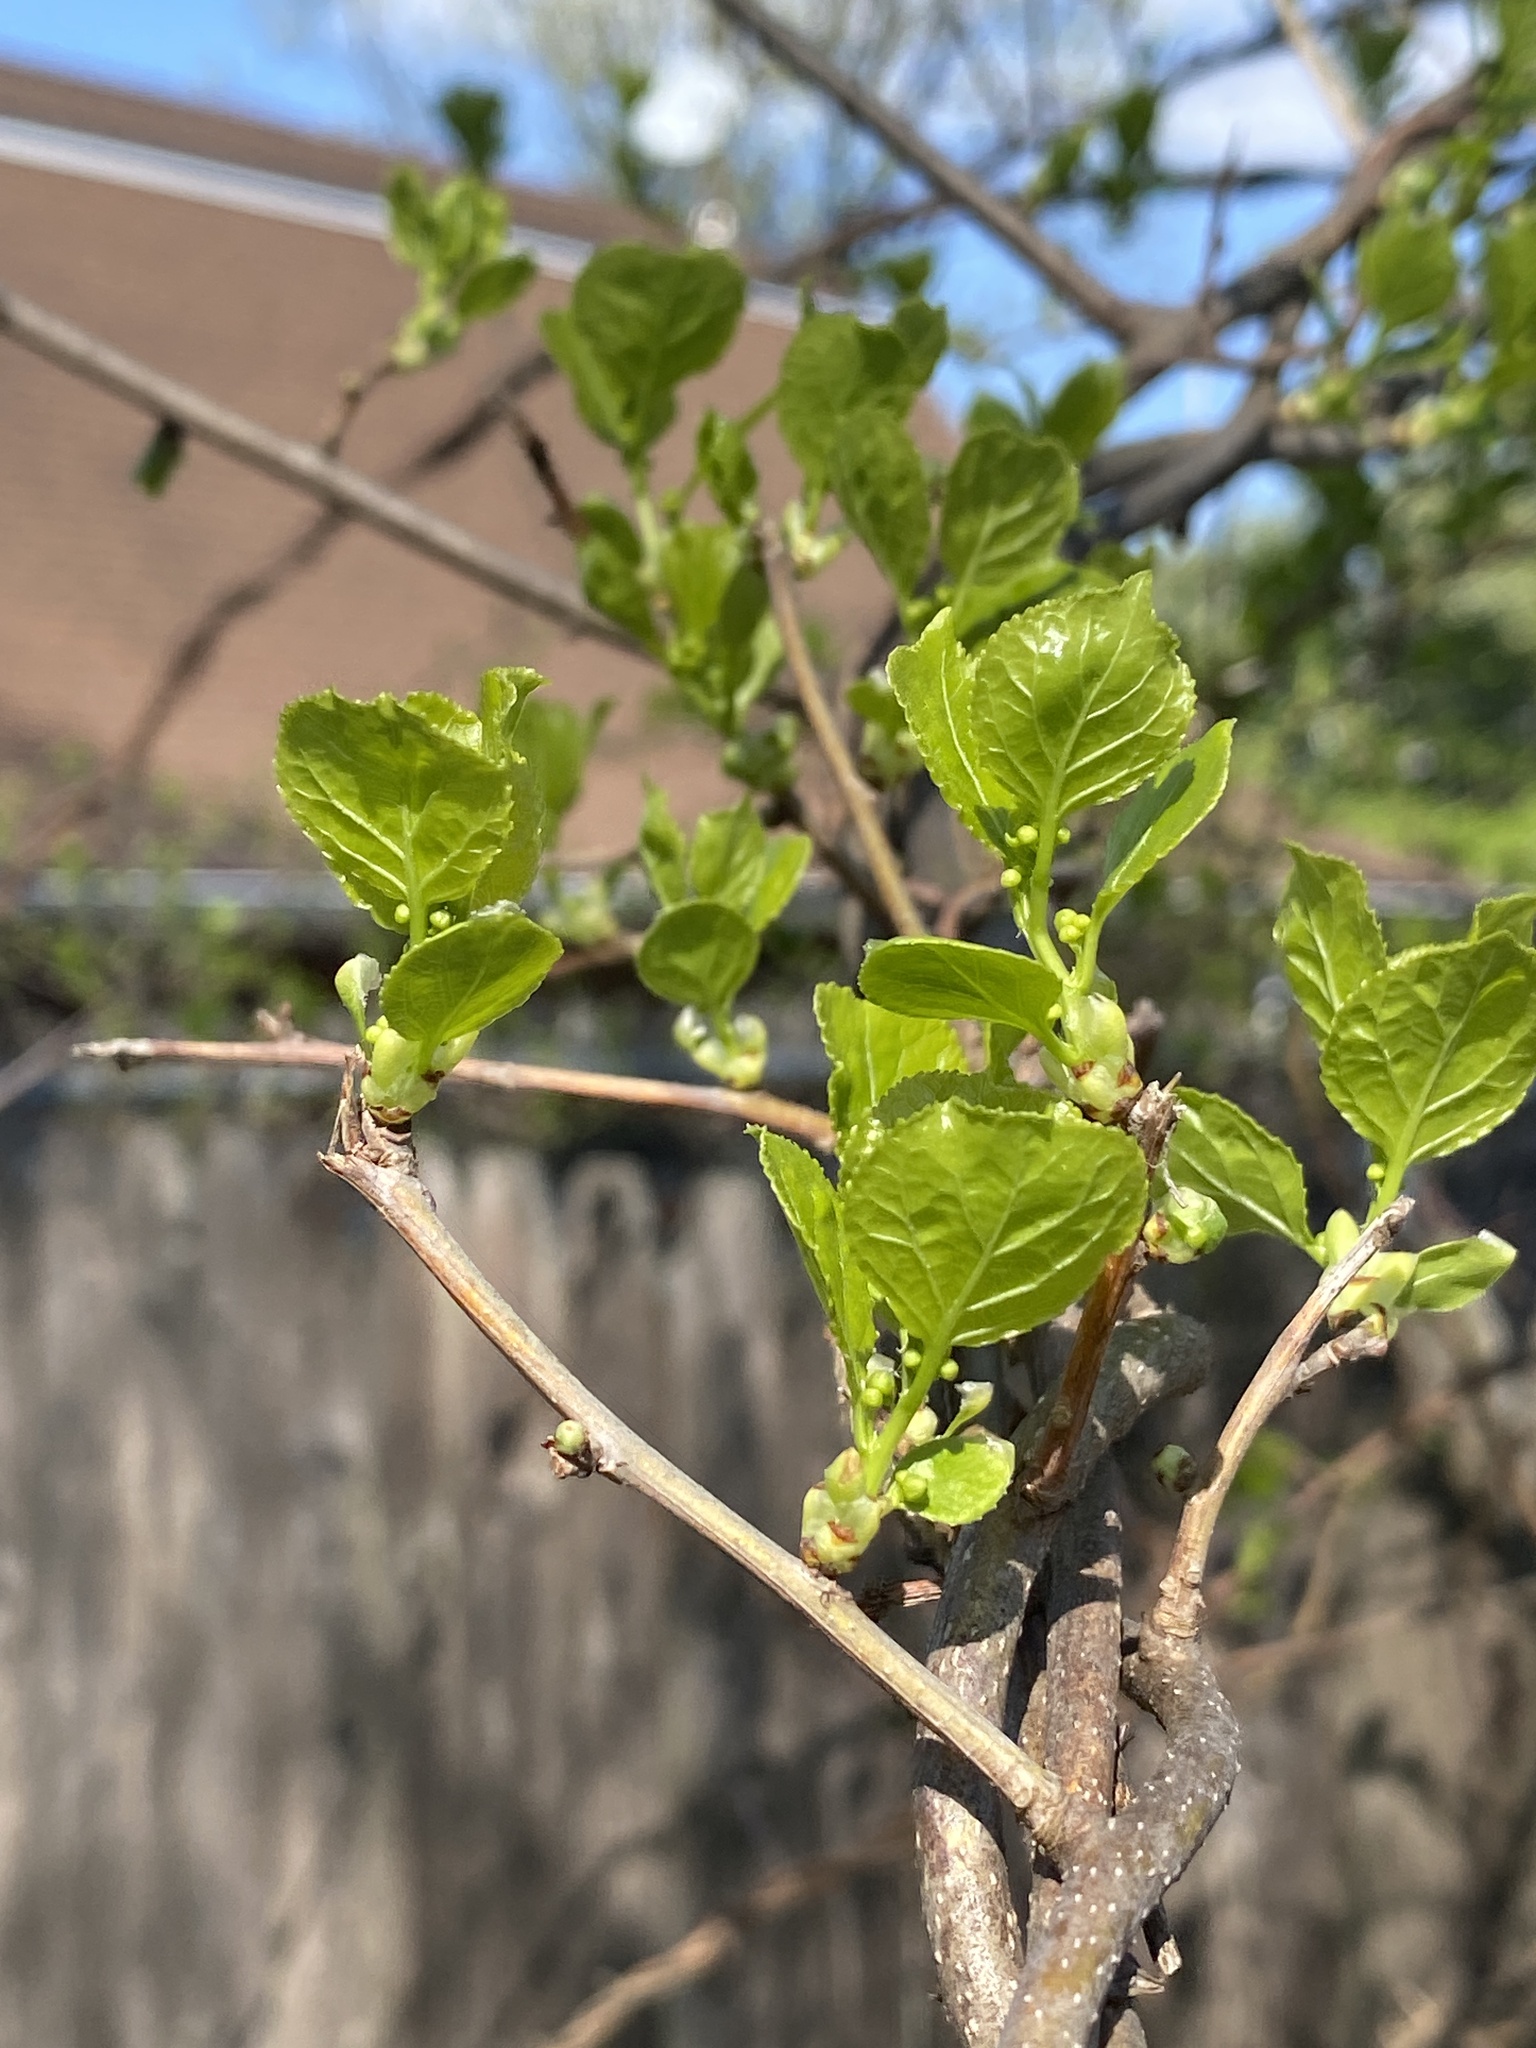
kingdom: Plantae
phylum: Tracheophyta
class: Magnoliopsida
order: Celastrales
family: Celastraceae
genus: Celastrus
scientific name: Celastrus orbiculatus
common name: Oriental bittersweet
